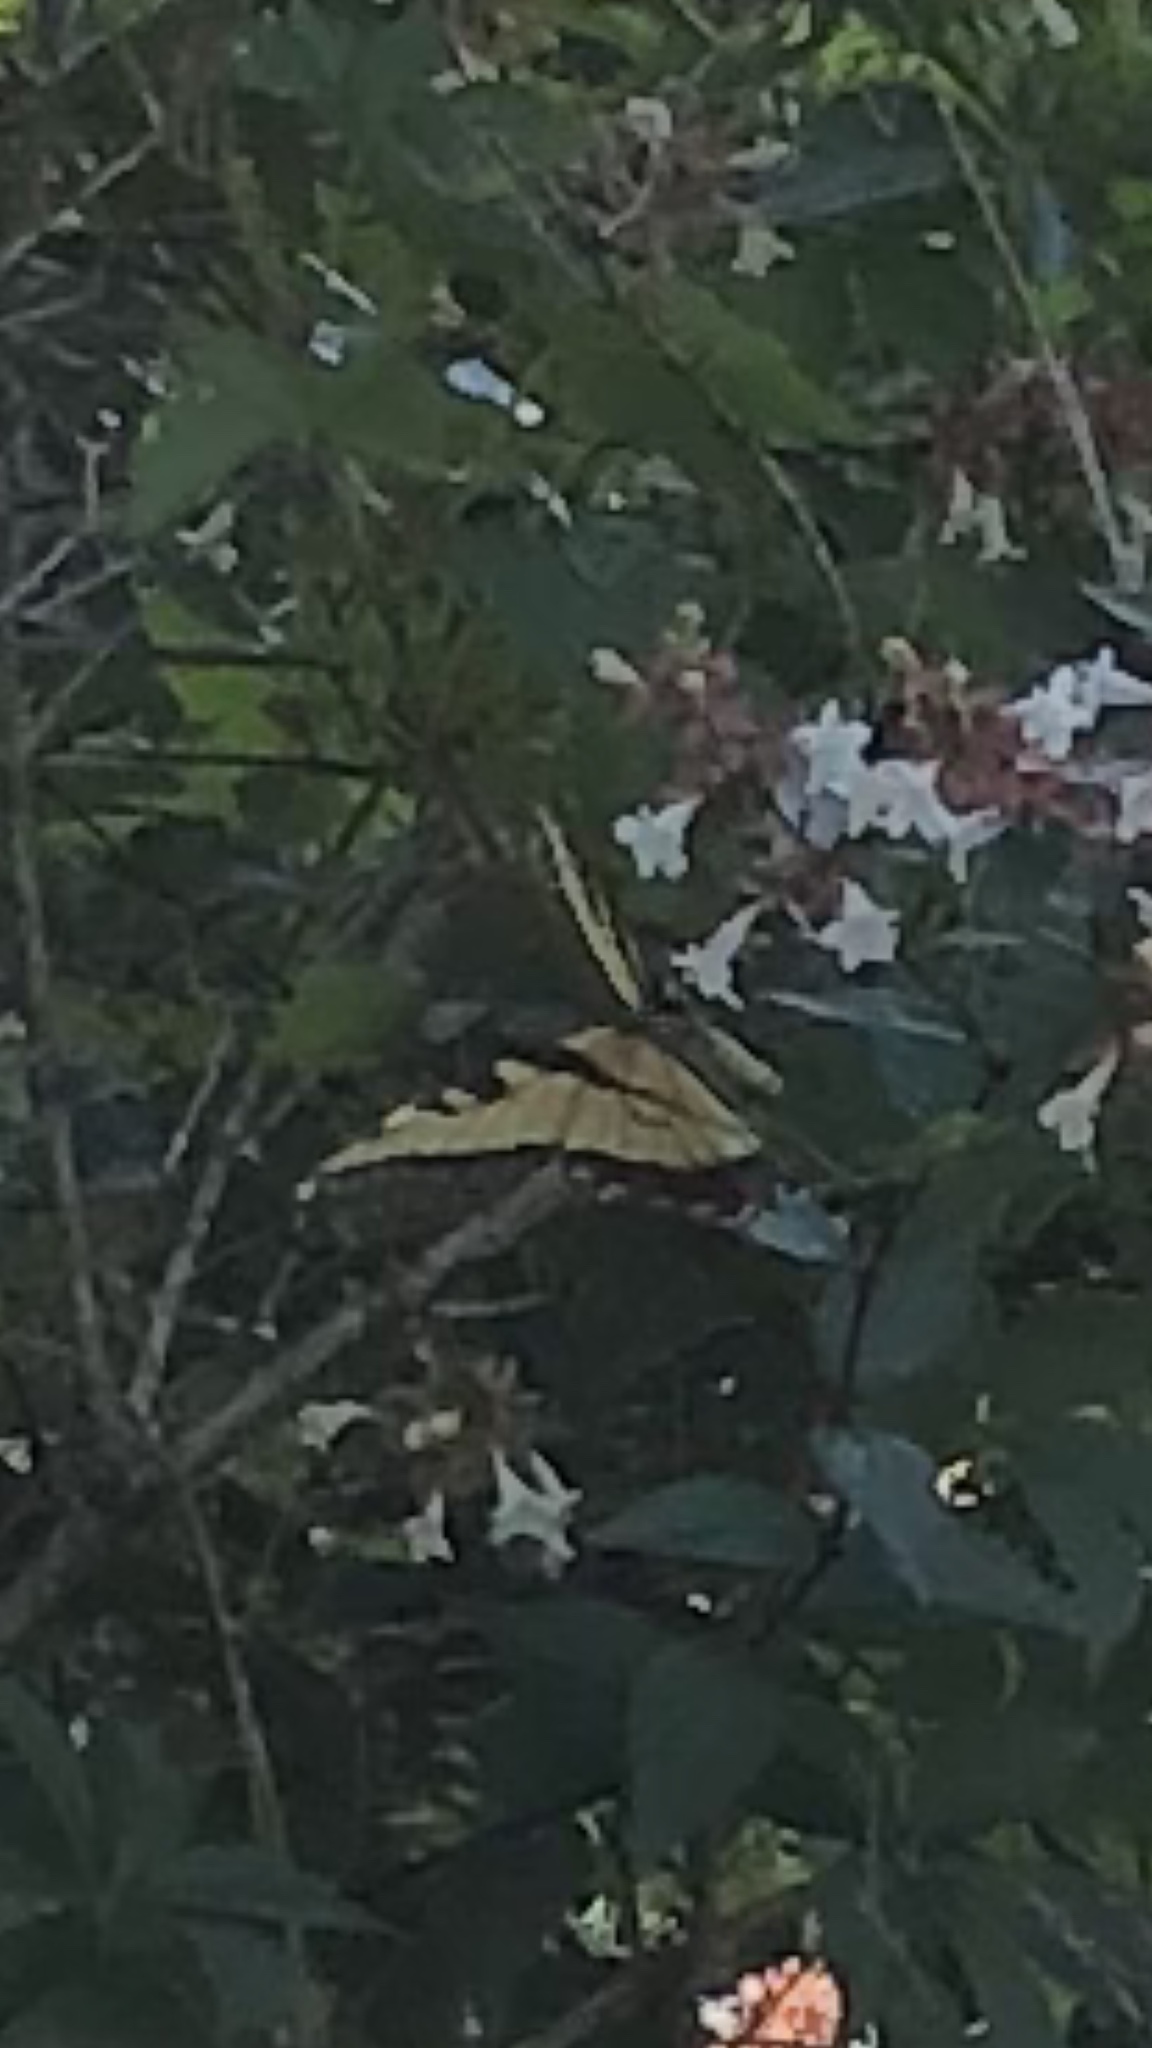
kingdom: Animalia
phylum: Arthropoda
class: Insecta
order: Lepidoptera
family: Papilionidae
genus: Papilio
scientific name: Papilio glaucus
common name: Tiger swallowtail
